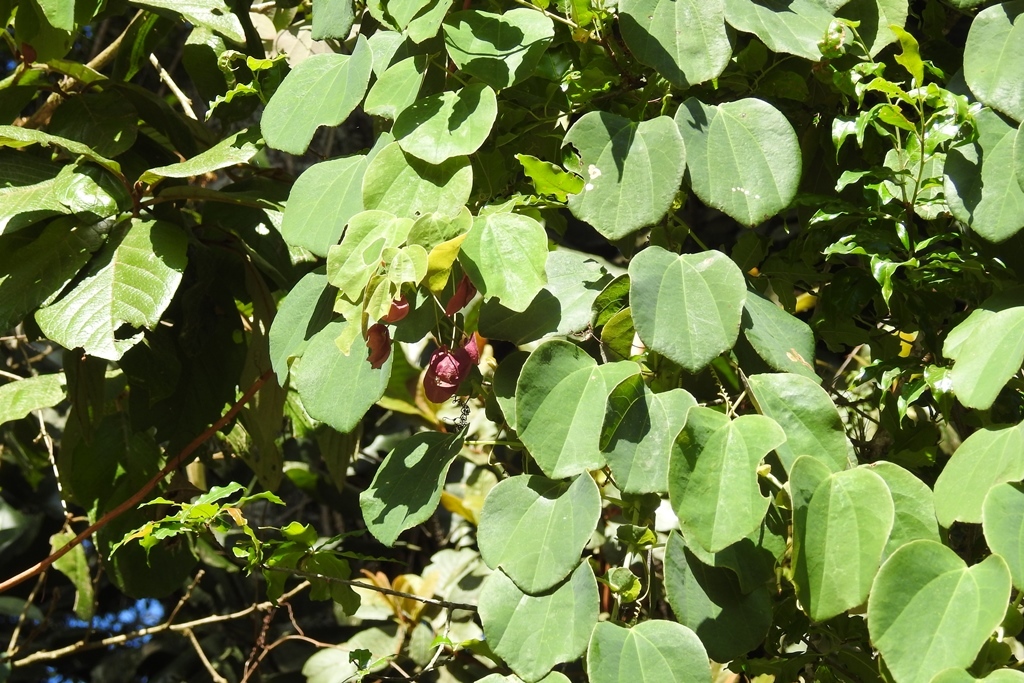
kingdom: Plantae
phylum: Tracheophyta
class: Magnoliopsida
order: Malpighiales
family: Passifloraceae
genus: Passiflora
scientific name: Passiflora membranacea
